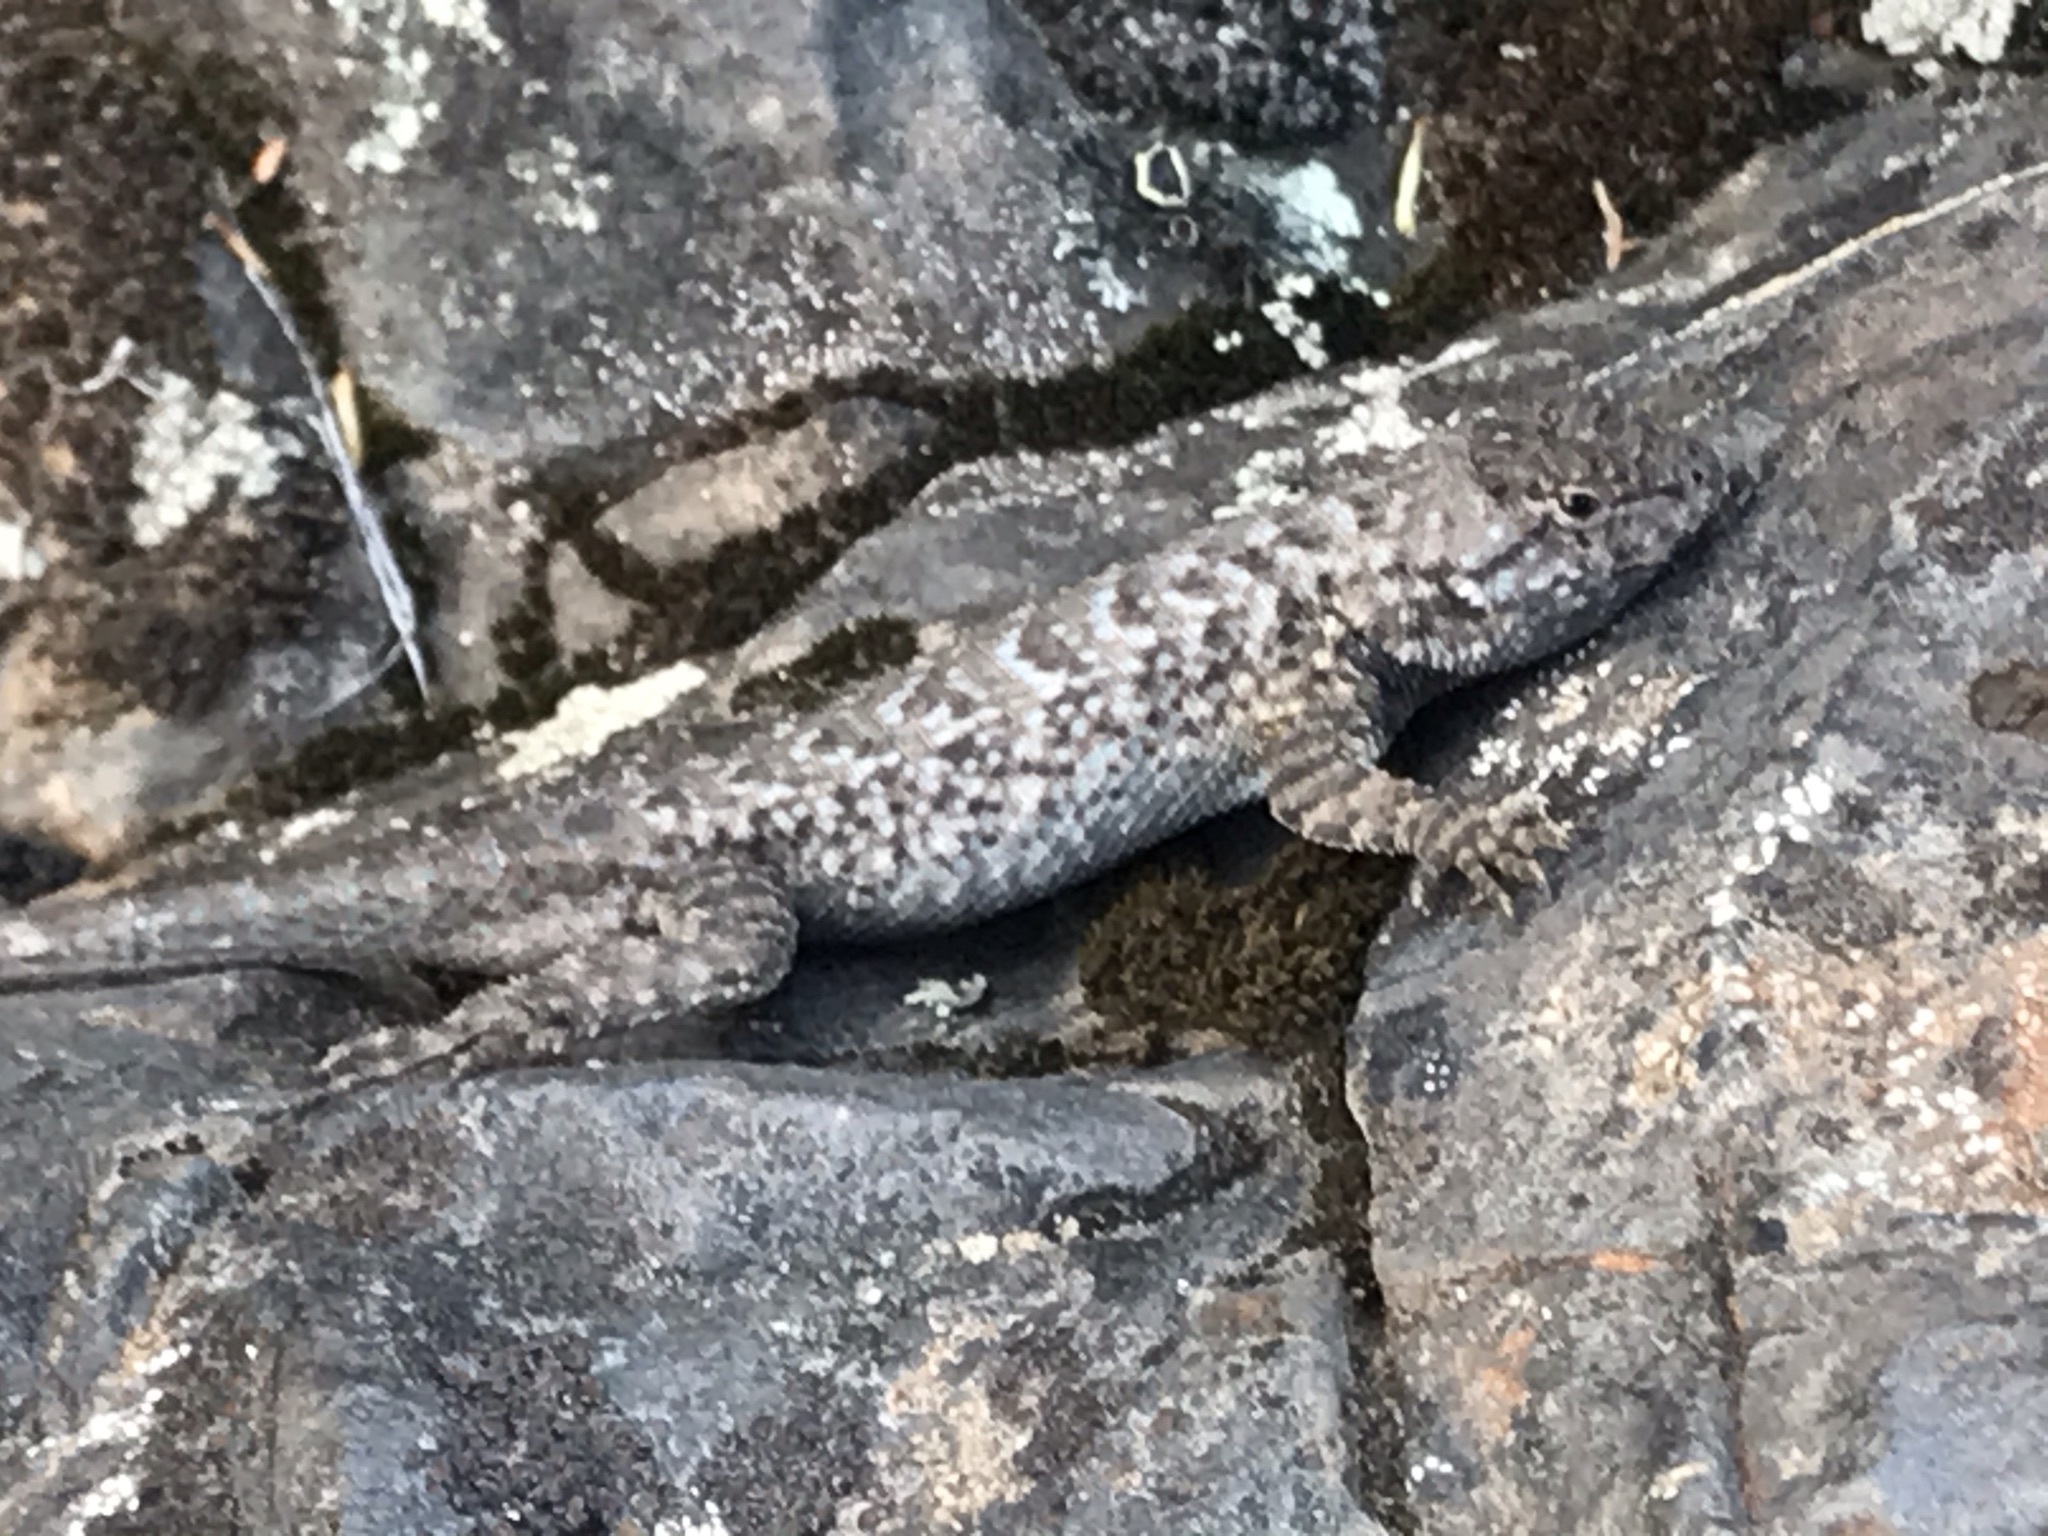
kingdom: Animalia
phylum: Chordata
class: Squamata
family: Phrynosomatidae
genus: Sceloporus
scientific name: Sceloporus occidentalis
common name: Western fence lizard
